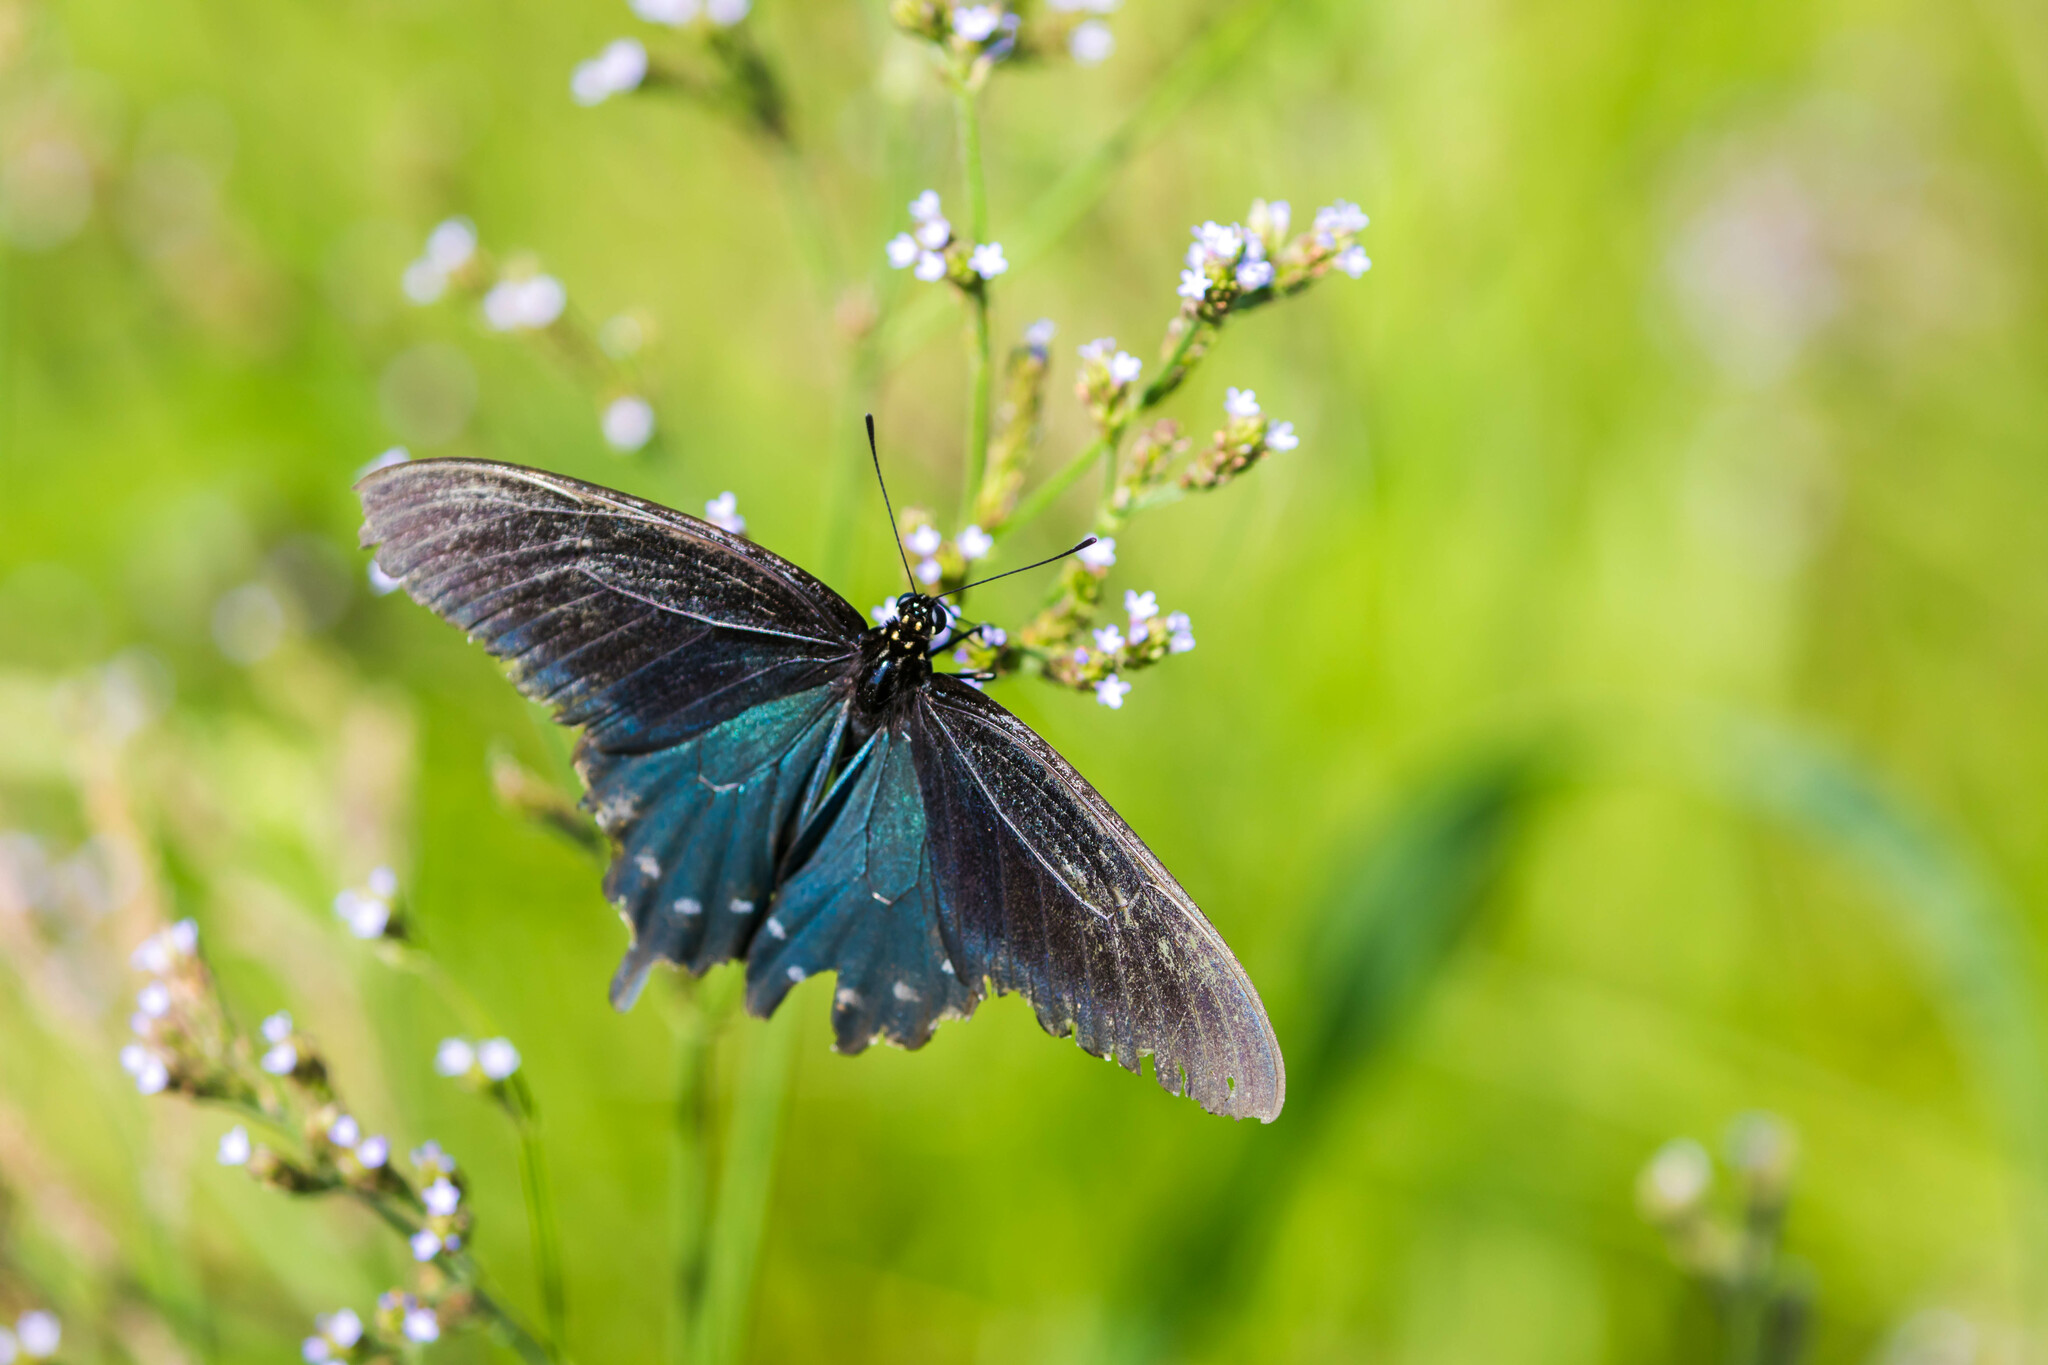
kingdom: Animalia
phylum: Arthropoda
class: Insecta
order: Lepidoptera
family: Papilionidae
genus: Battus
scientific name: Battus philenor
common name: Pipevine swallowtail
